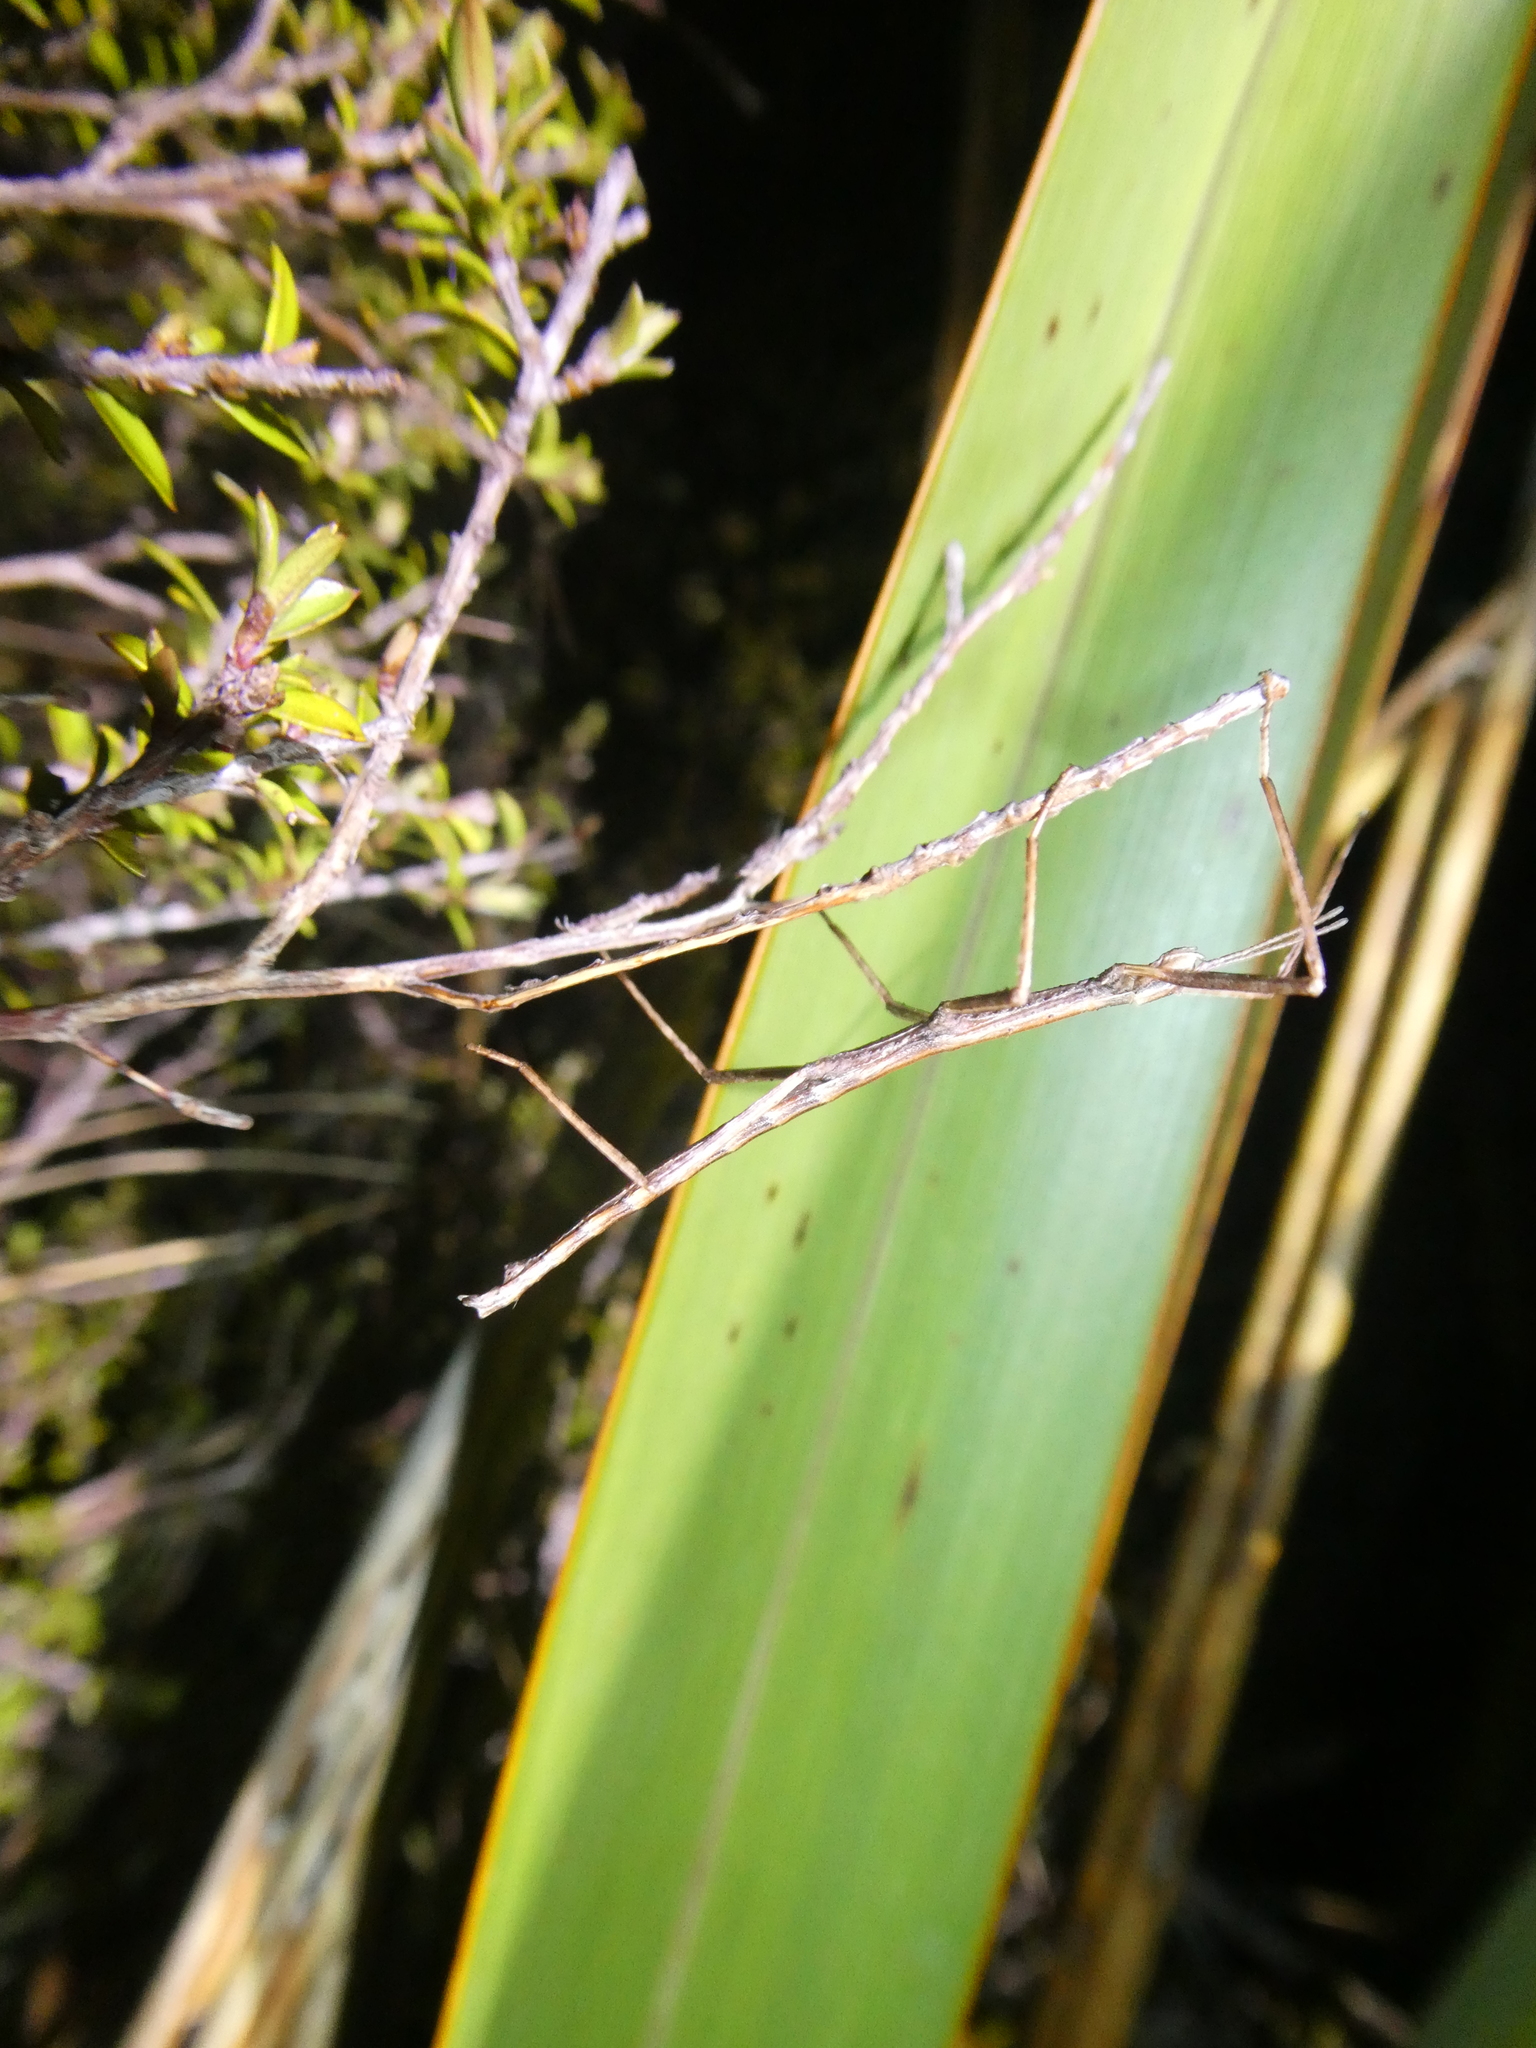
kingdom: Animalia
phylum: Arthropoda
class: Insecta
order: Phasmida
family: Phasmatidae
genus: Micrarchus
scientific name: Micrarchus hystriculeus
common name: The lesser spiny stick insect
